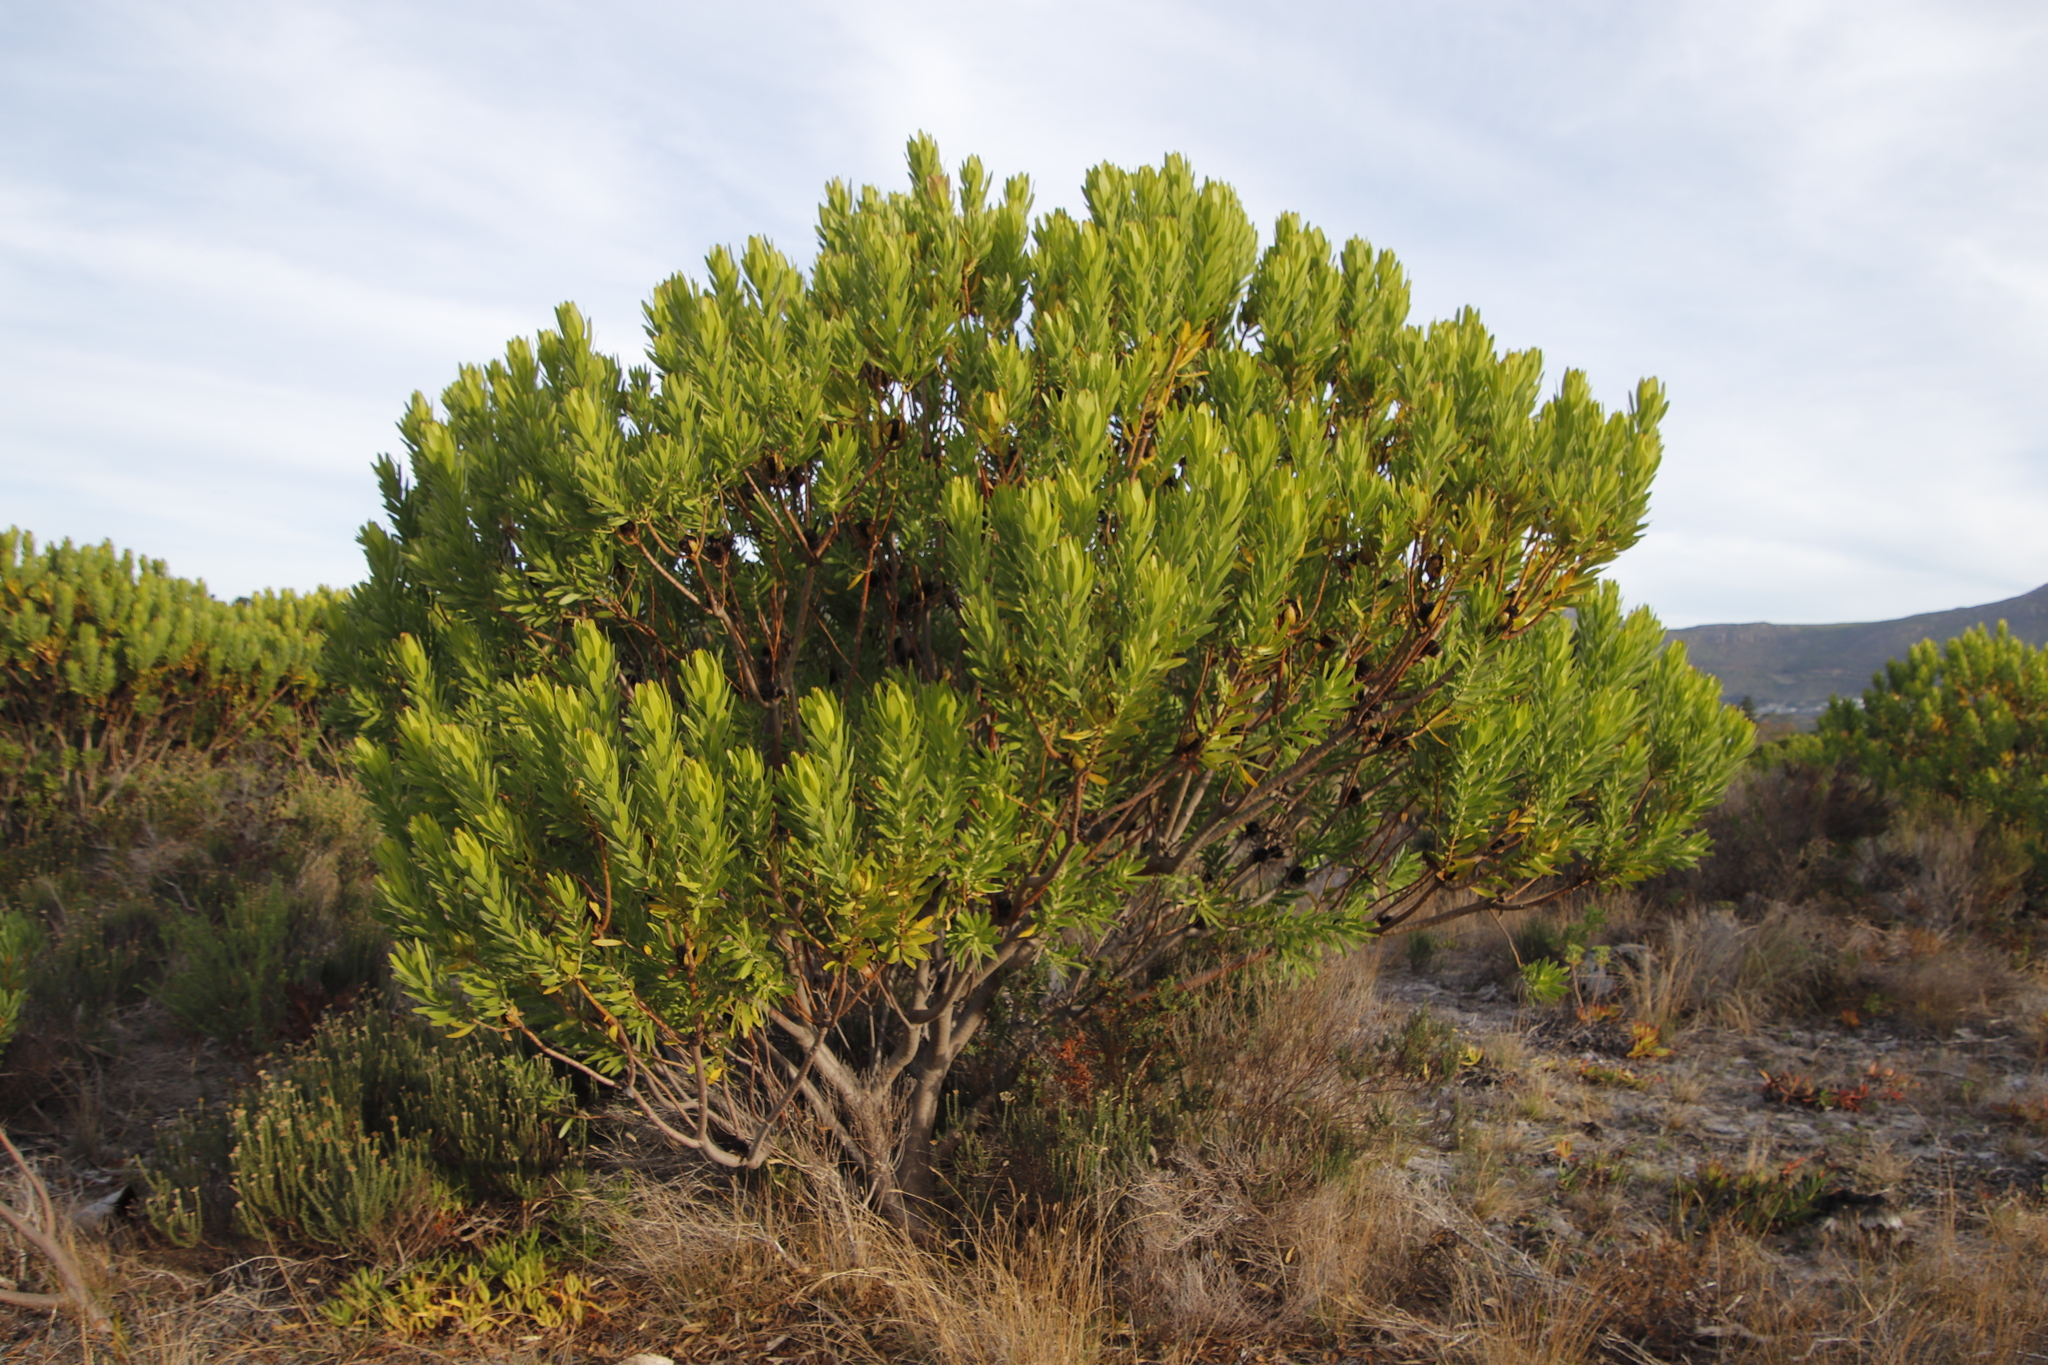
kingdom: Plantae
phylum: Tracheophyta
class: Magnoliopsida
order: Proteales
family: Proteaceae
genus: Leucadendron
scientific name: Leucadendron laureolum
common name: Golden sunshinebush
